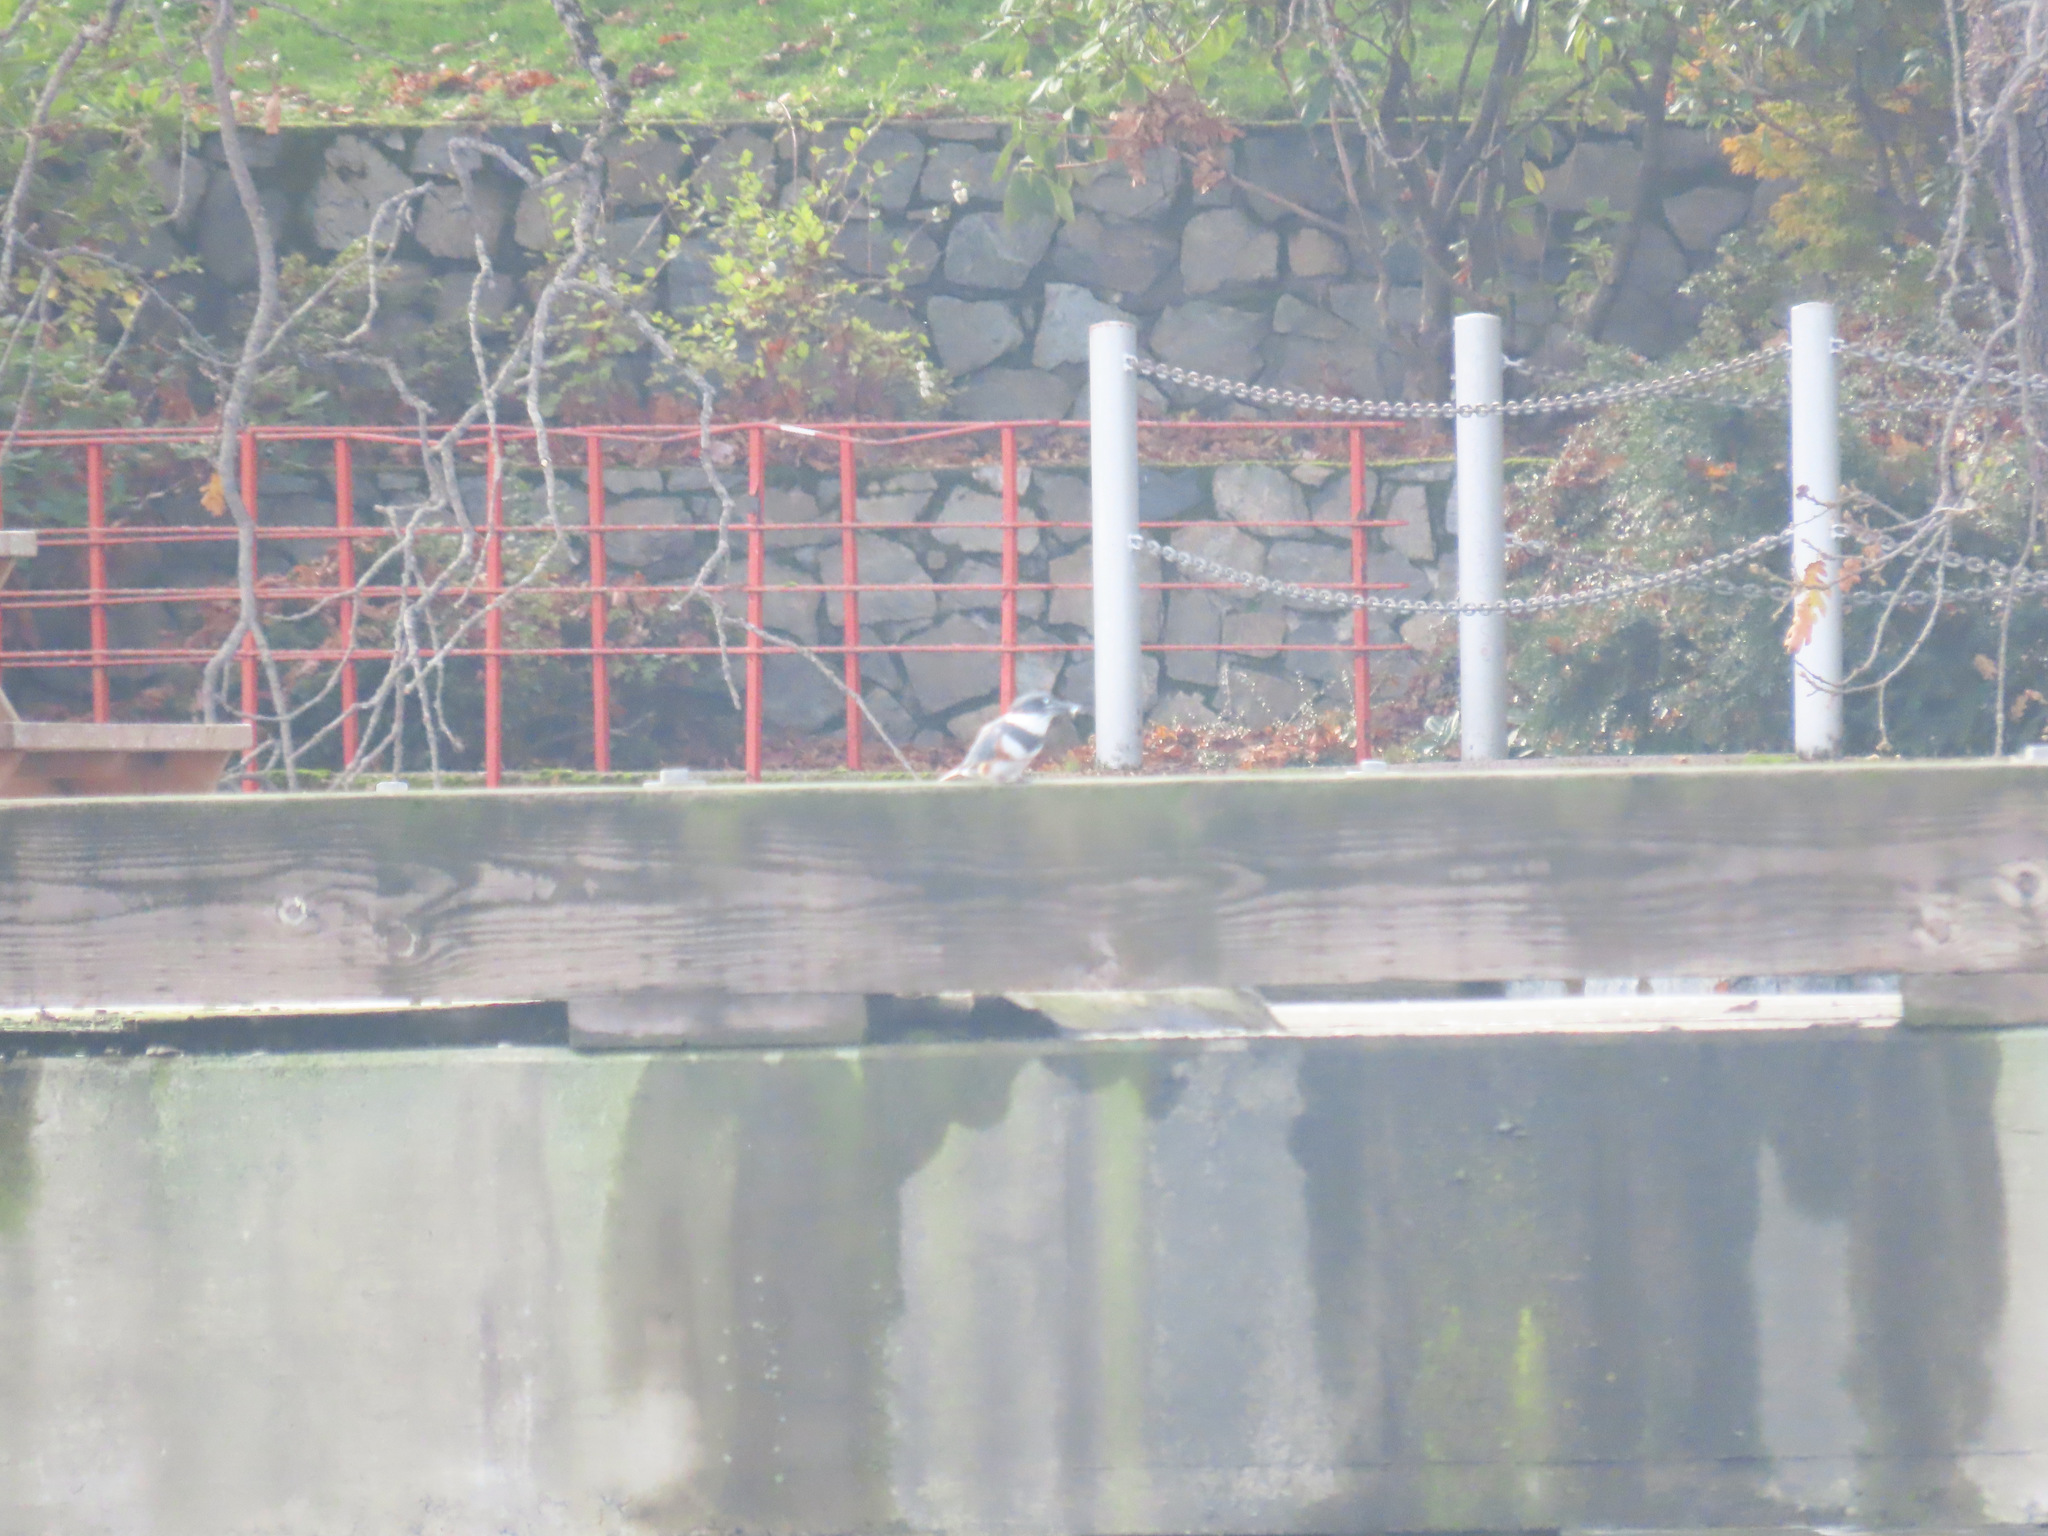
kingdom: Animalia
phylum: Chordata
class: Aves
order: Coraciiformes
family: Alcedinidae
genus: Megaceryle
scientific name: Megaceryle alcyon
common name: Belted kingfisher
